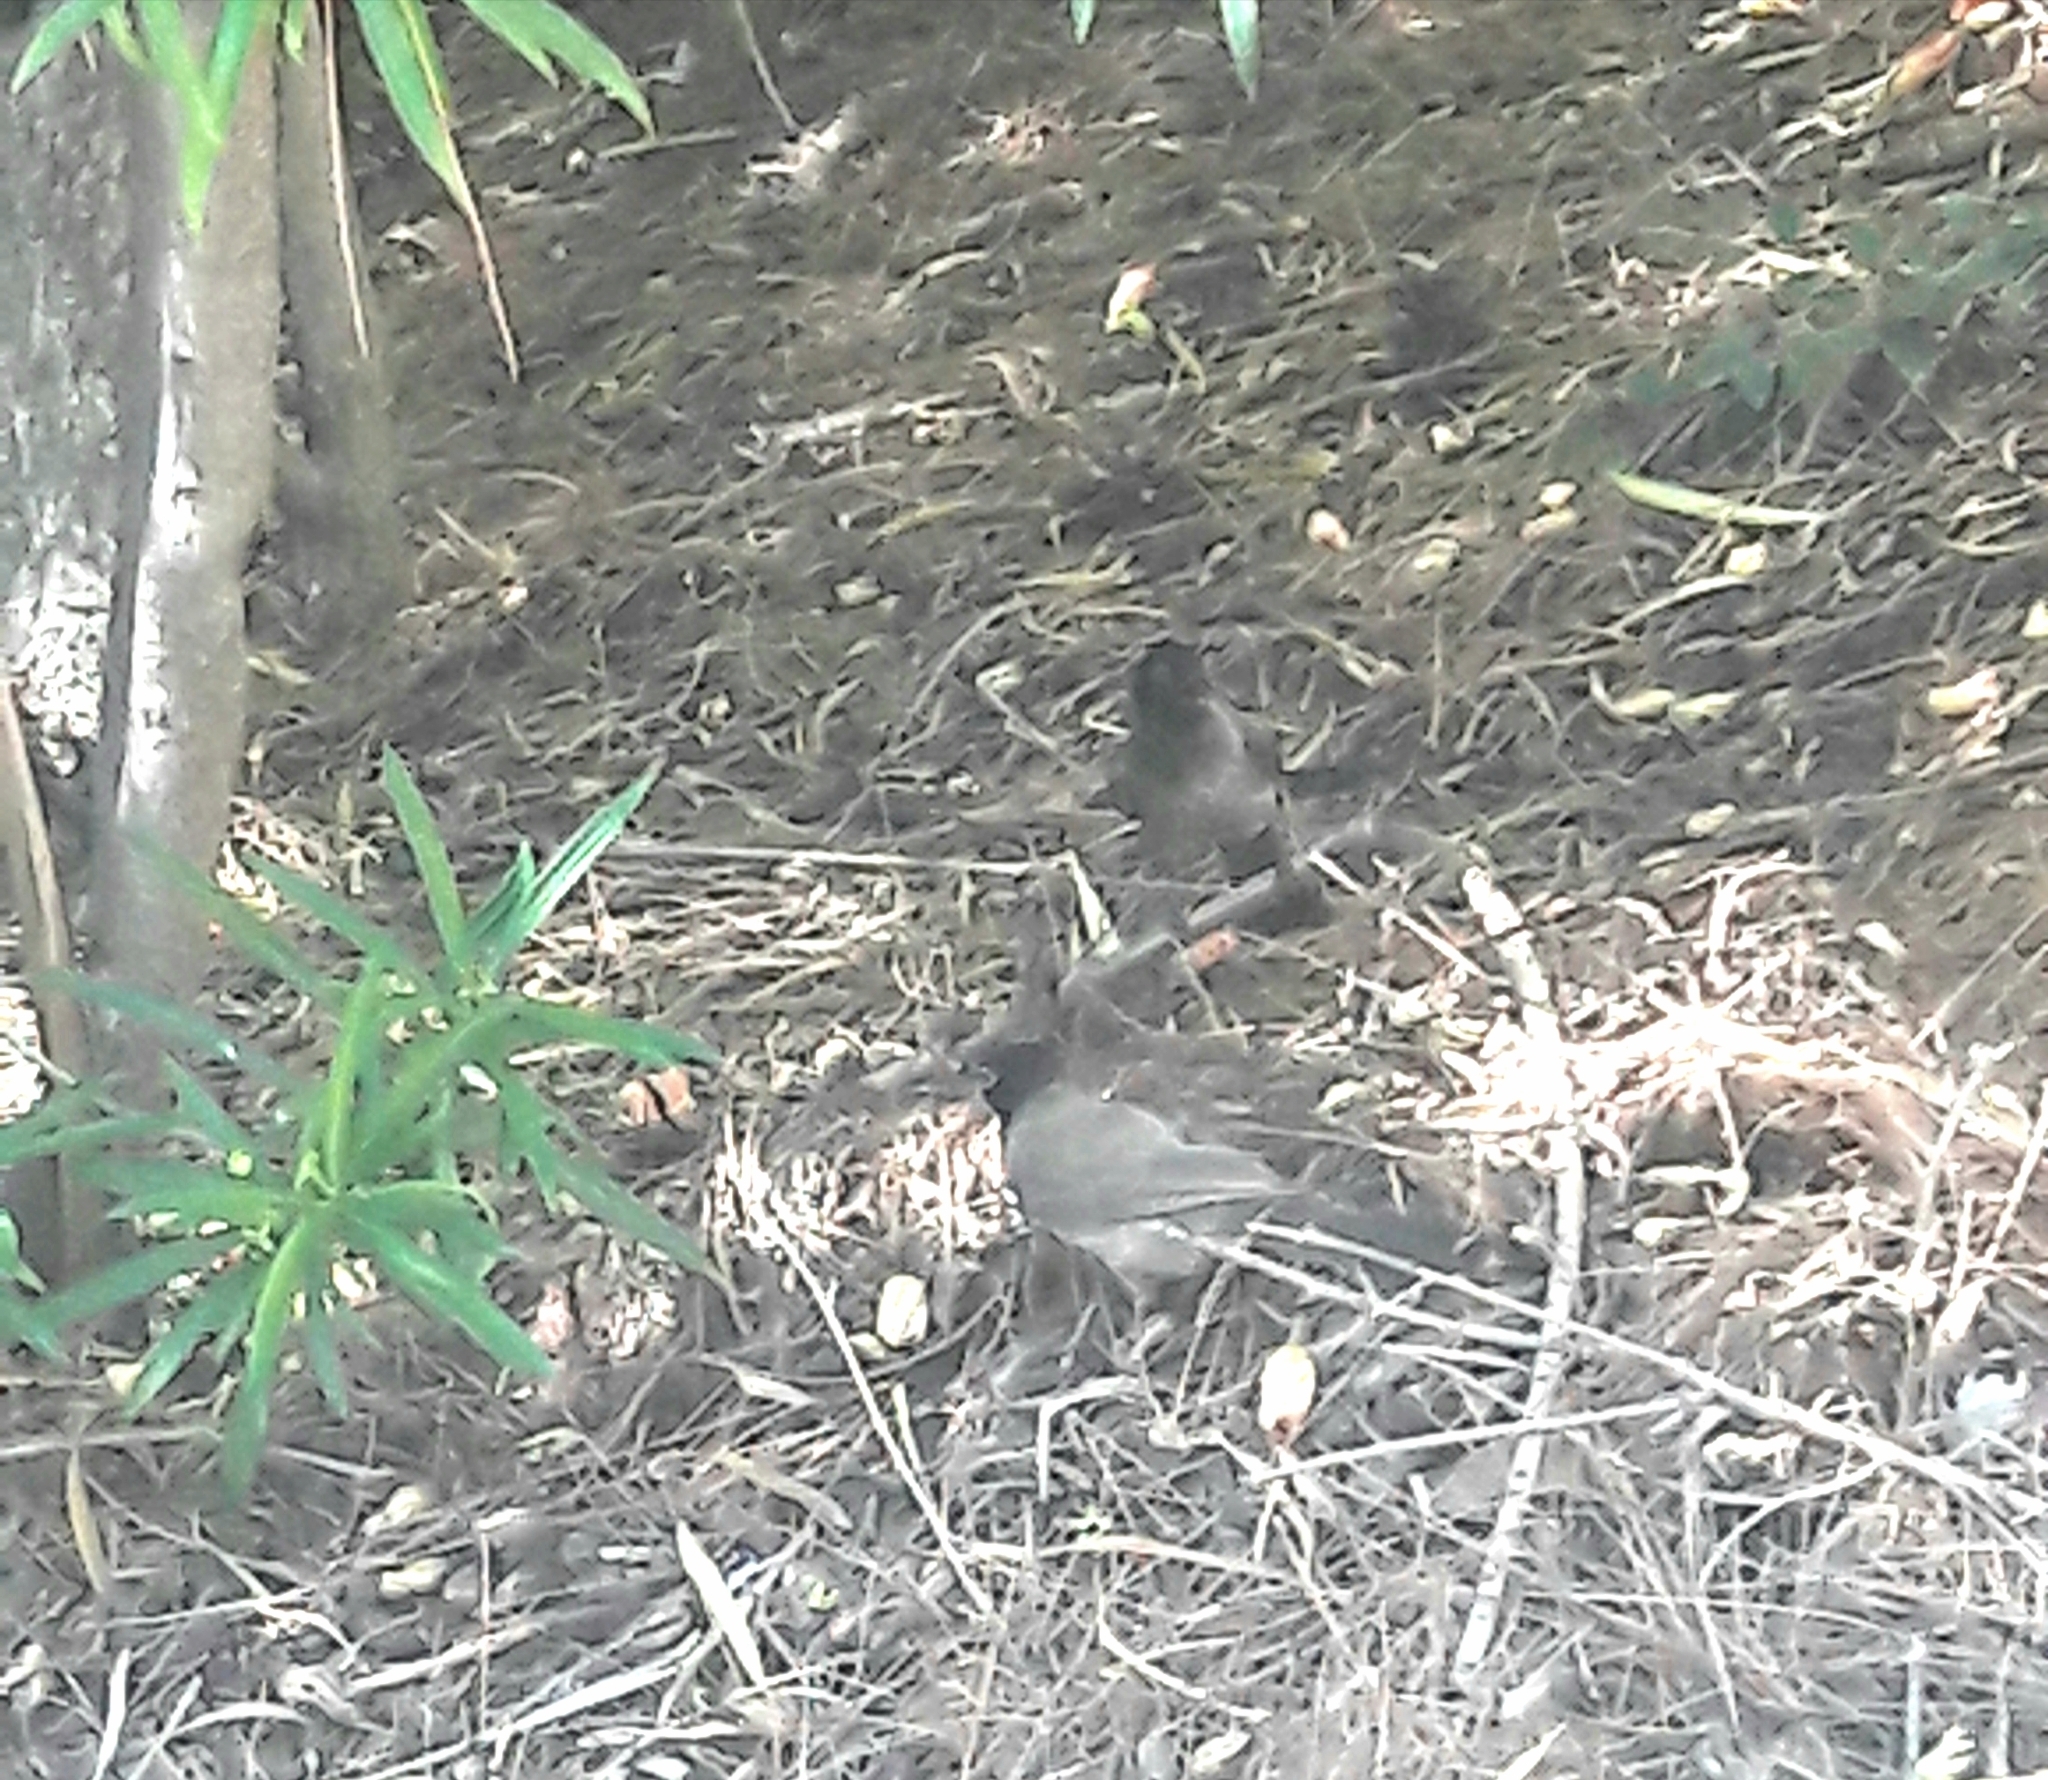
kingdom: Animalia
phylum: Chordata
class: Aves
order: Passeriformes
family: Pycnonotidae
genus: Pycnonotus
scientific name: Pycnonotus xanthopygos
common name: White-spectacled bulbul
